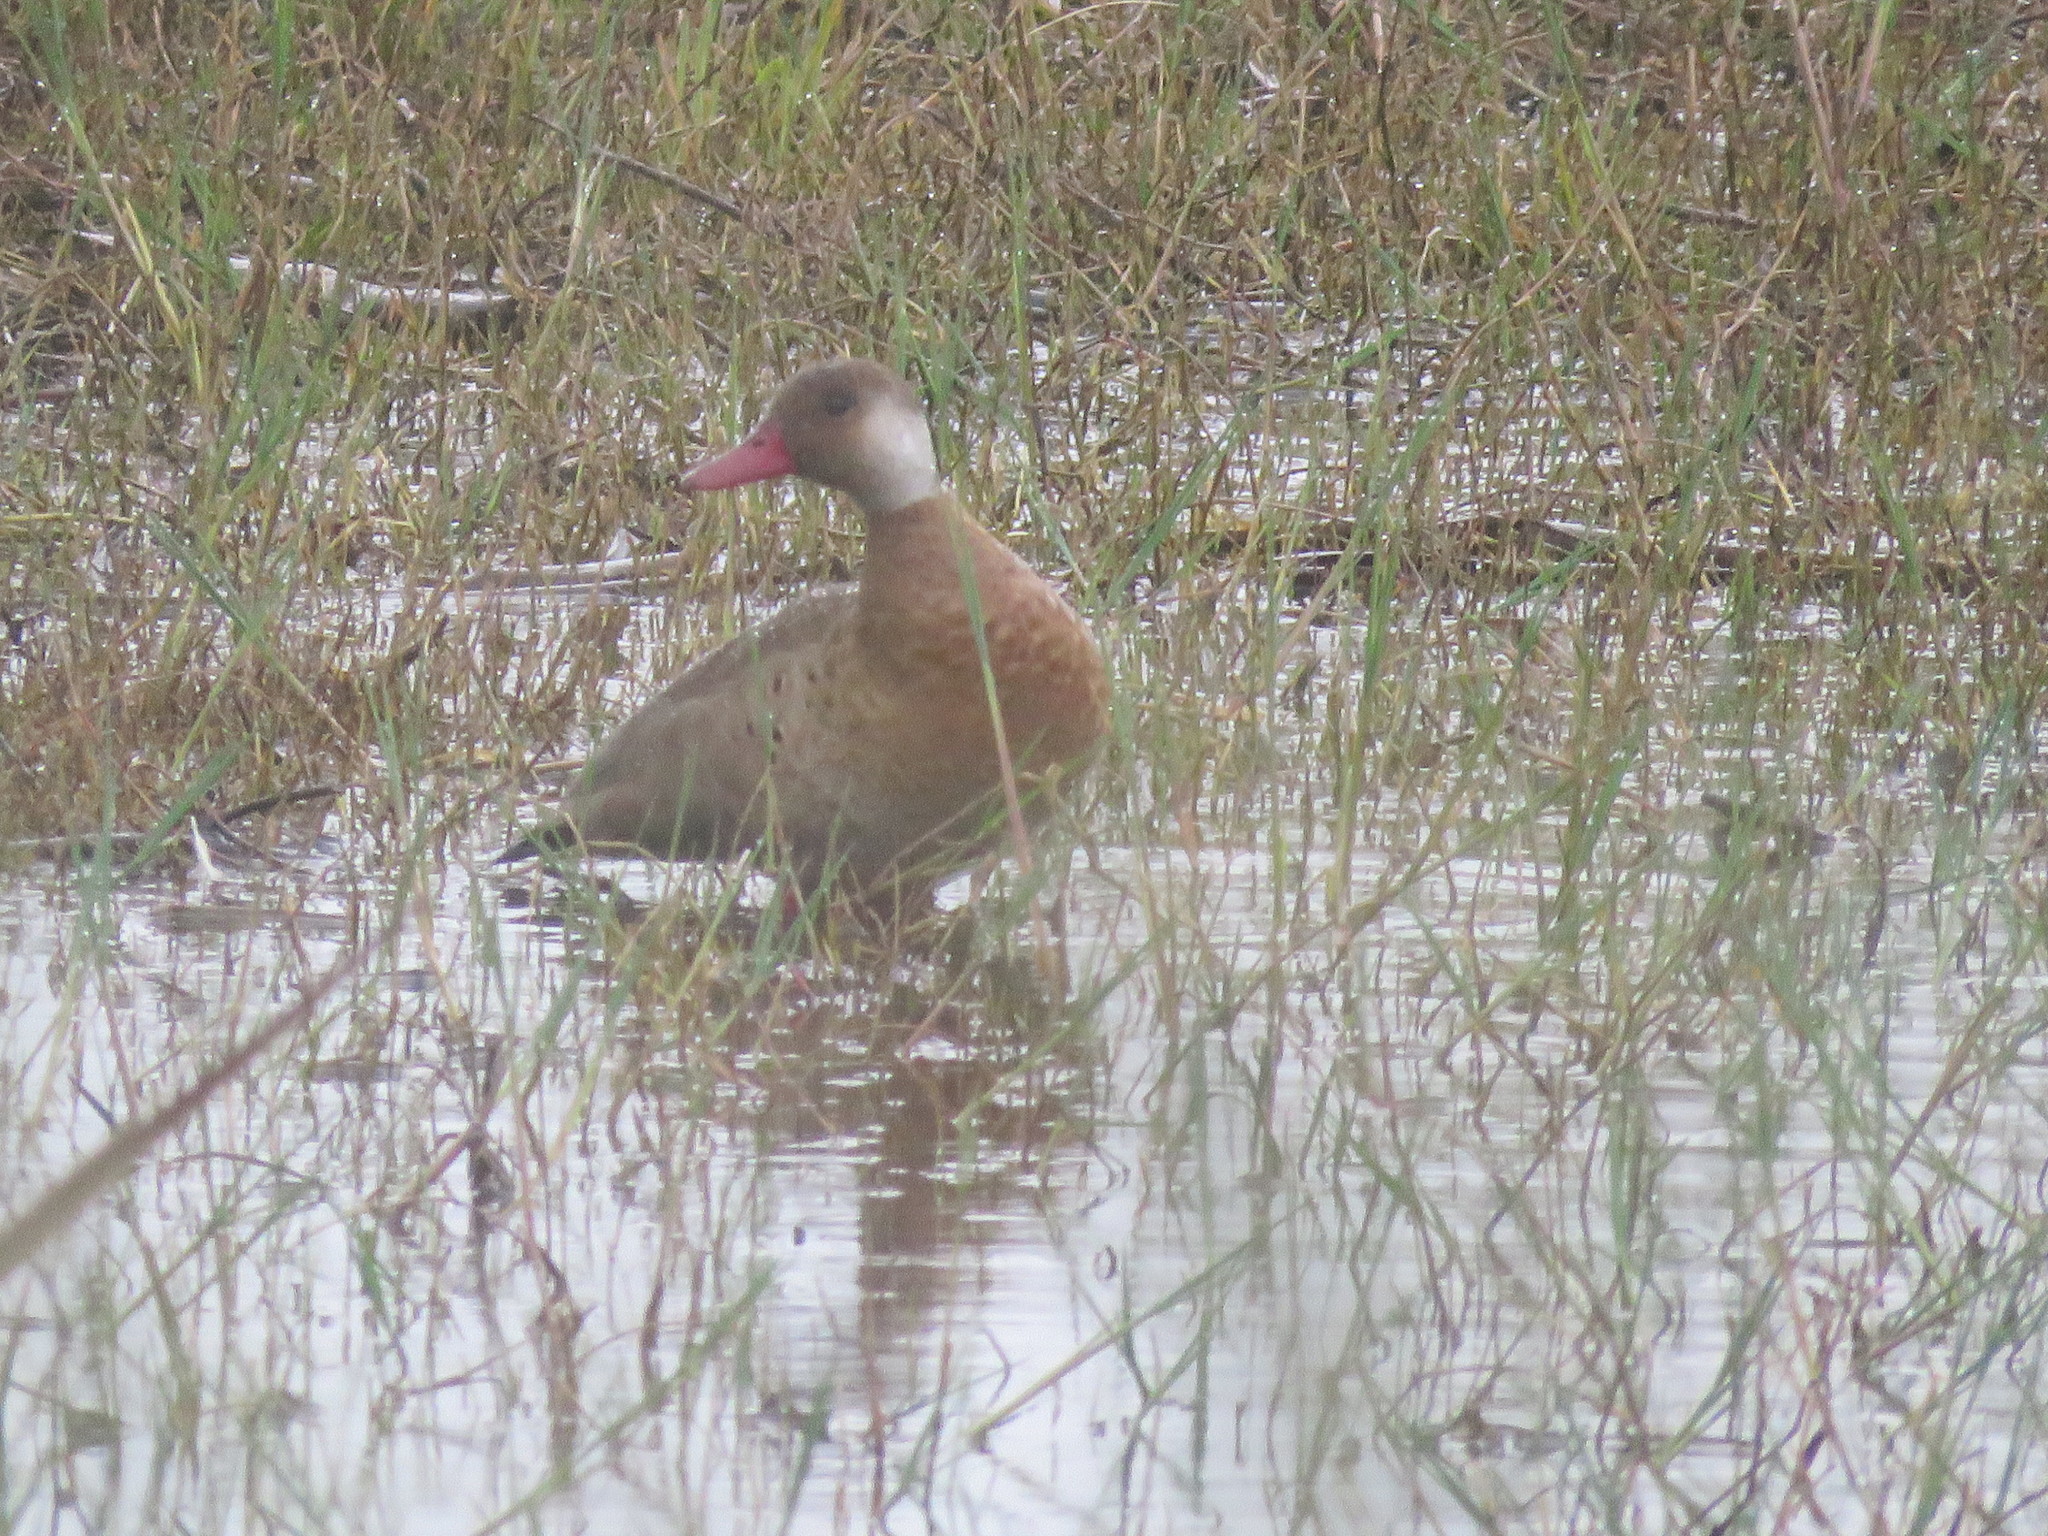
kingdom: Animalia
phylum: Chordata
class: Aves
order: Anseriformes
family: Anatidae
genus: Amazonetta
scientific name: Amazonetta brasiliensis
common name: Brazilian teal
